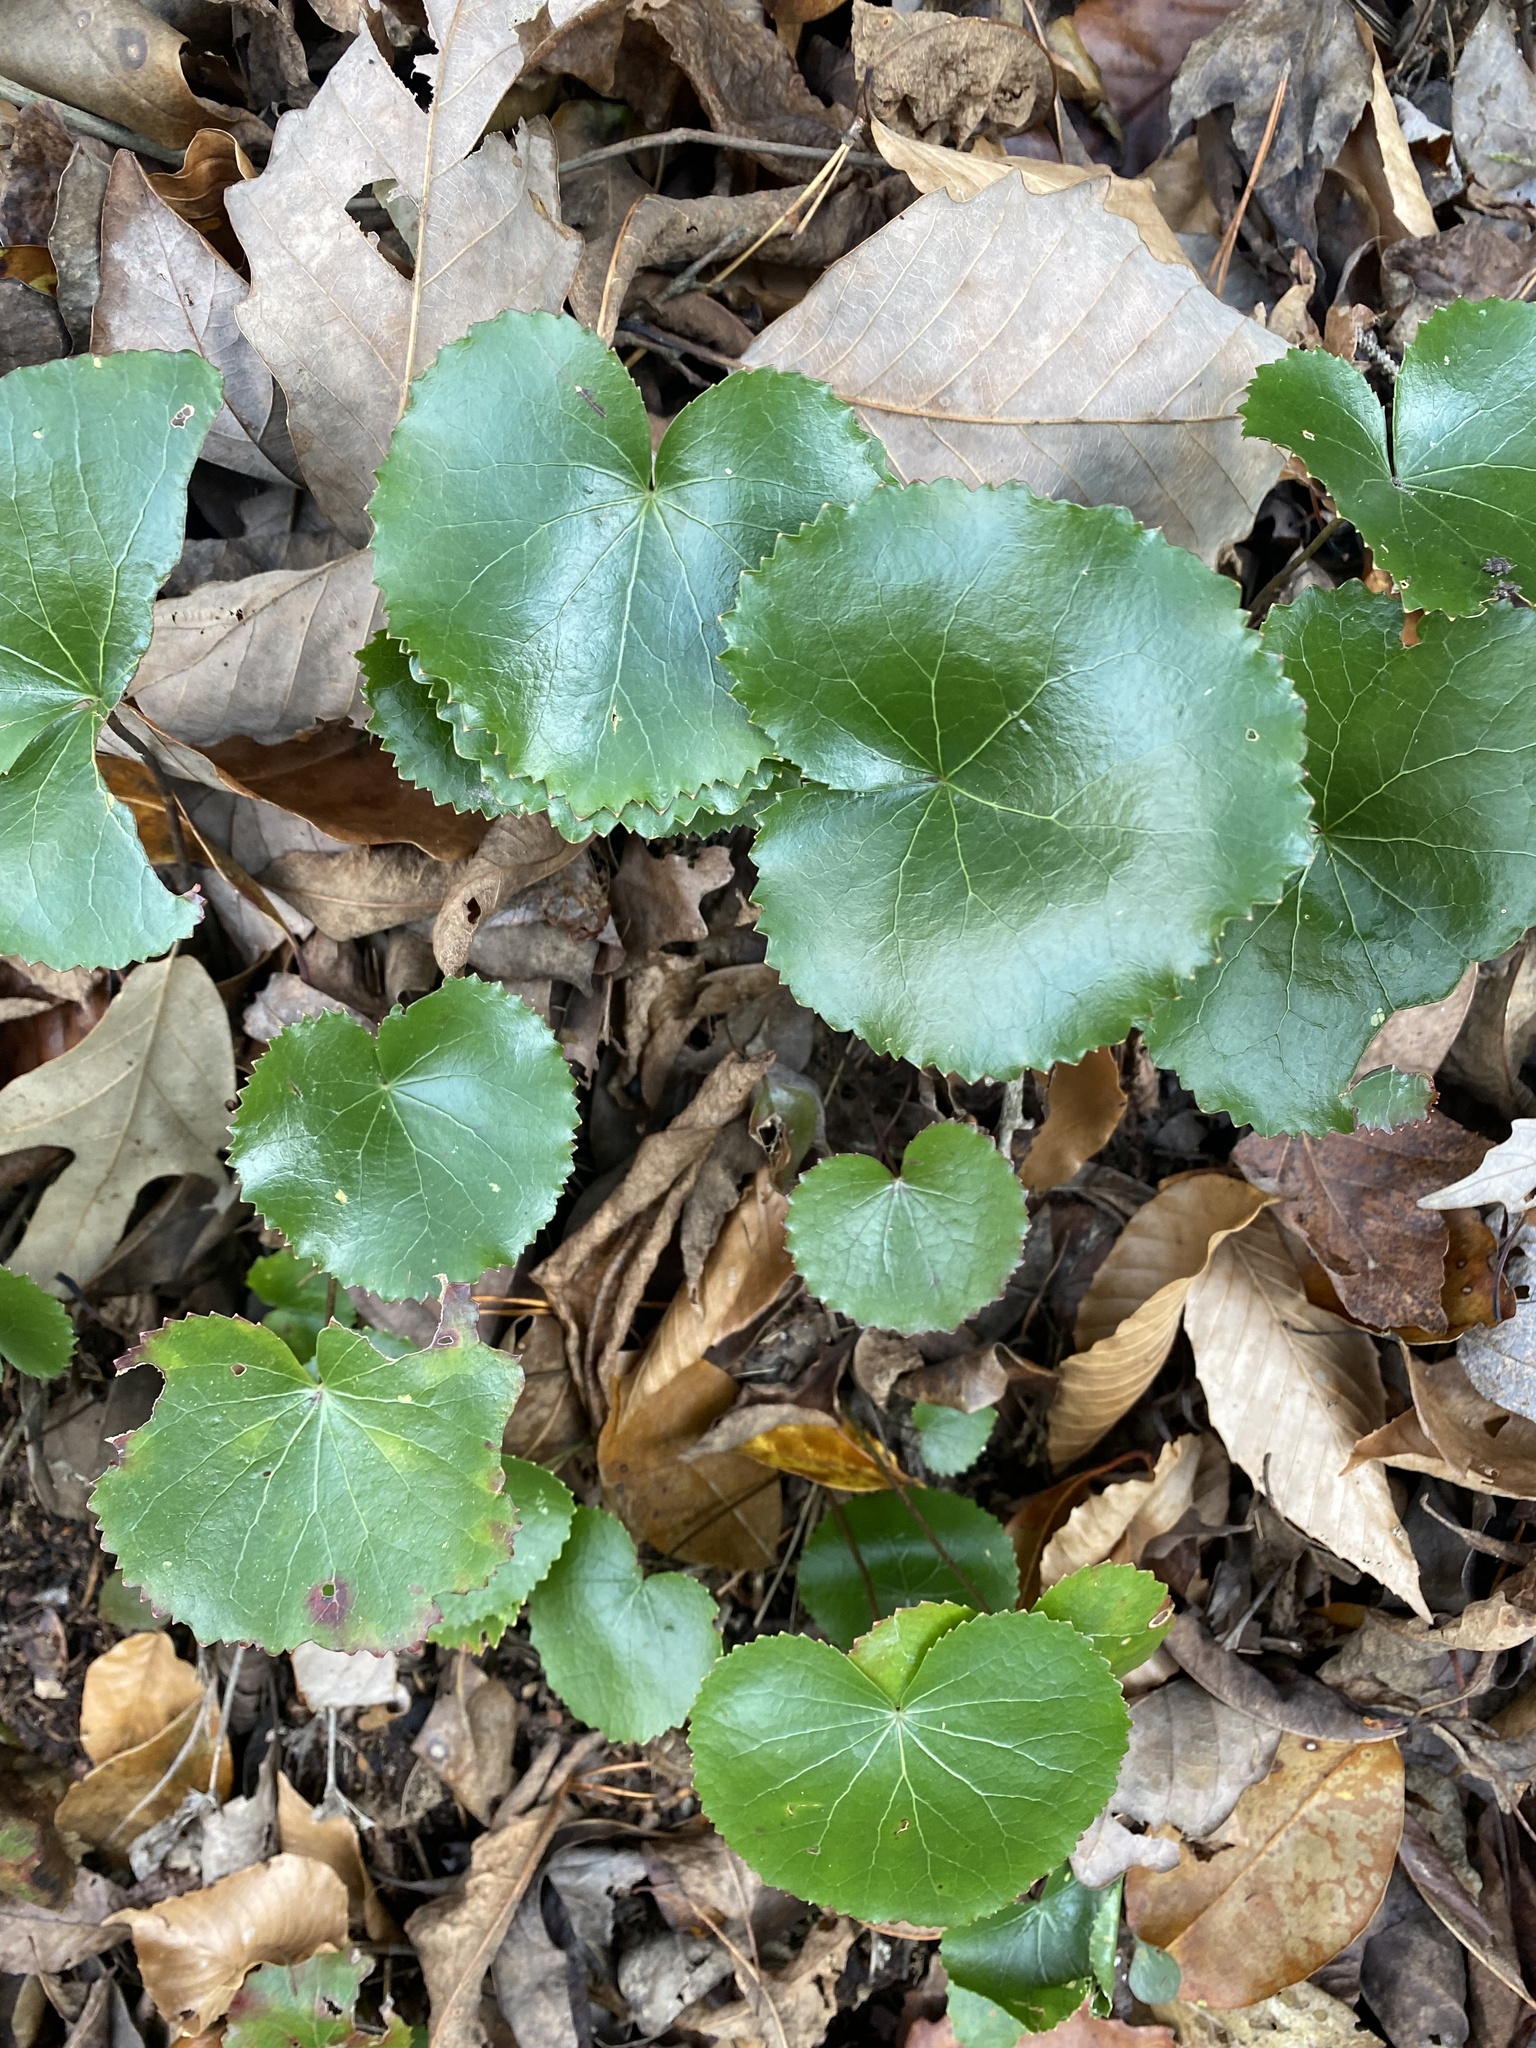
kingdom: Plantae
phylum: Tracheophyta
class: Magnoliopsida
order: Ericales
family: Diapensiaceae
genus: Galax
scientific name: Galax urceolata
